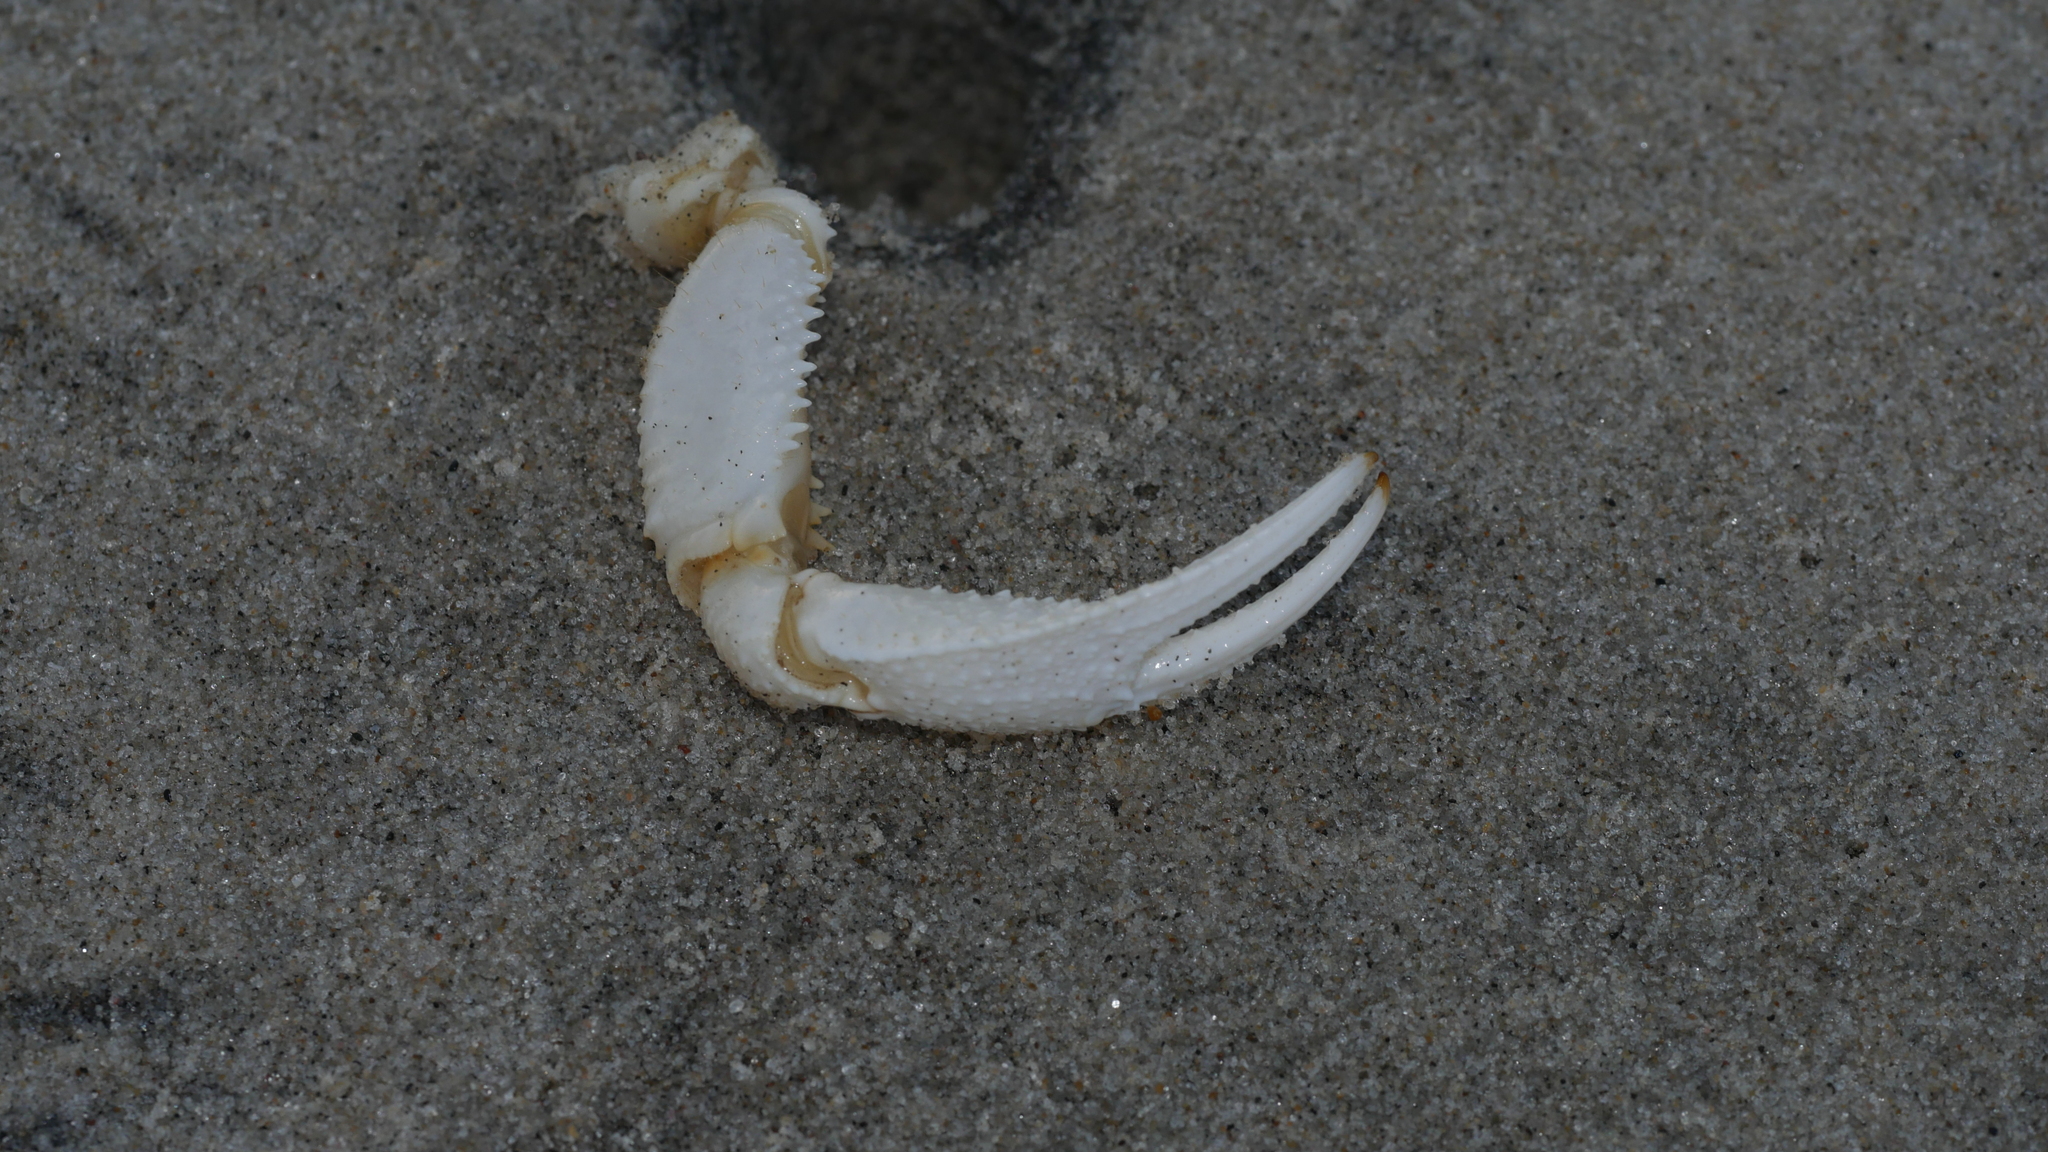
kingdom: Animalia
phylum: Arthropoda
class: Malacostraca
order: Decapoda
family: Ocypodidae
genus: Ocypode
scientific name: Ocypode quadrata
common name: Ghost crab
